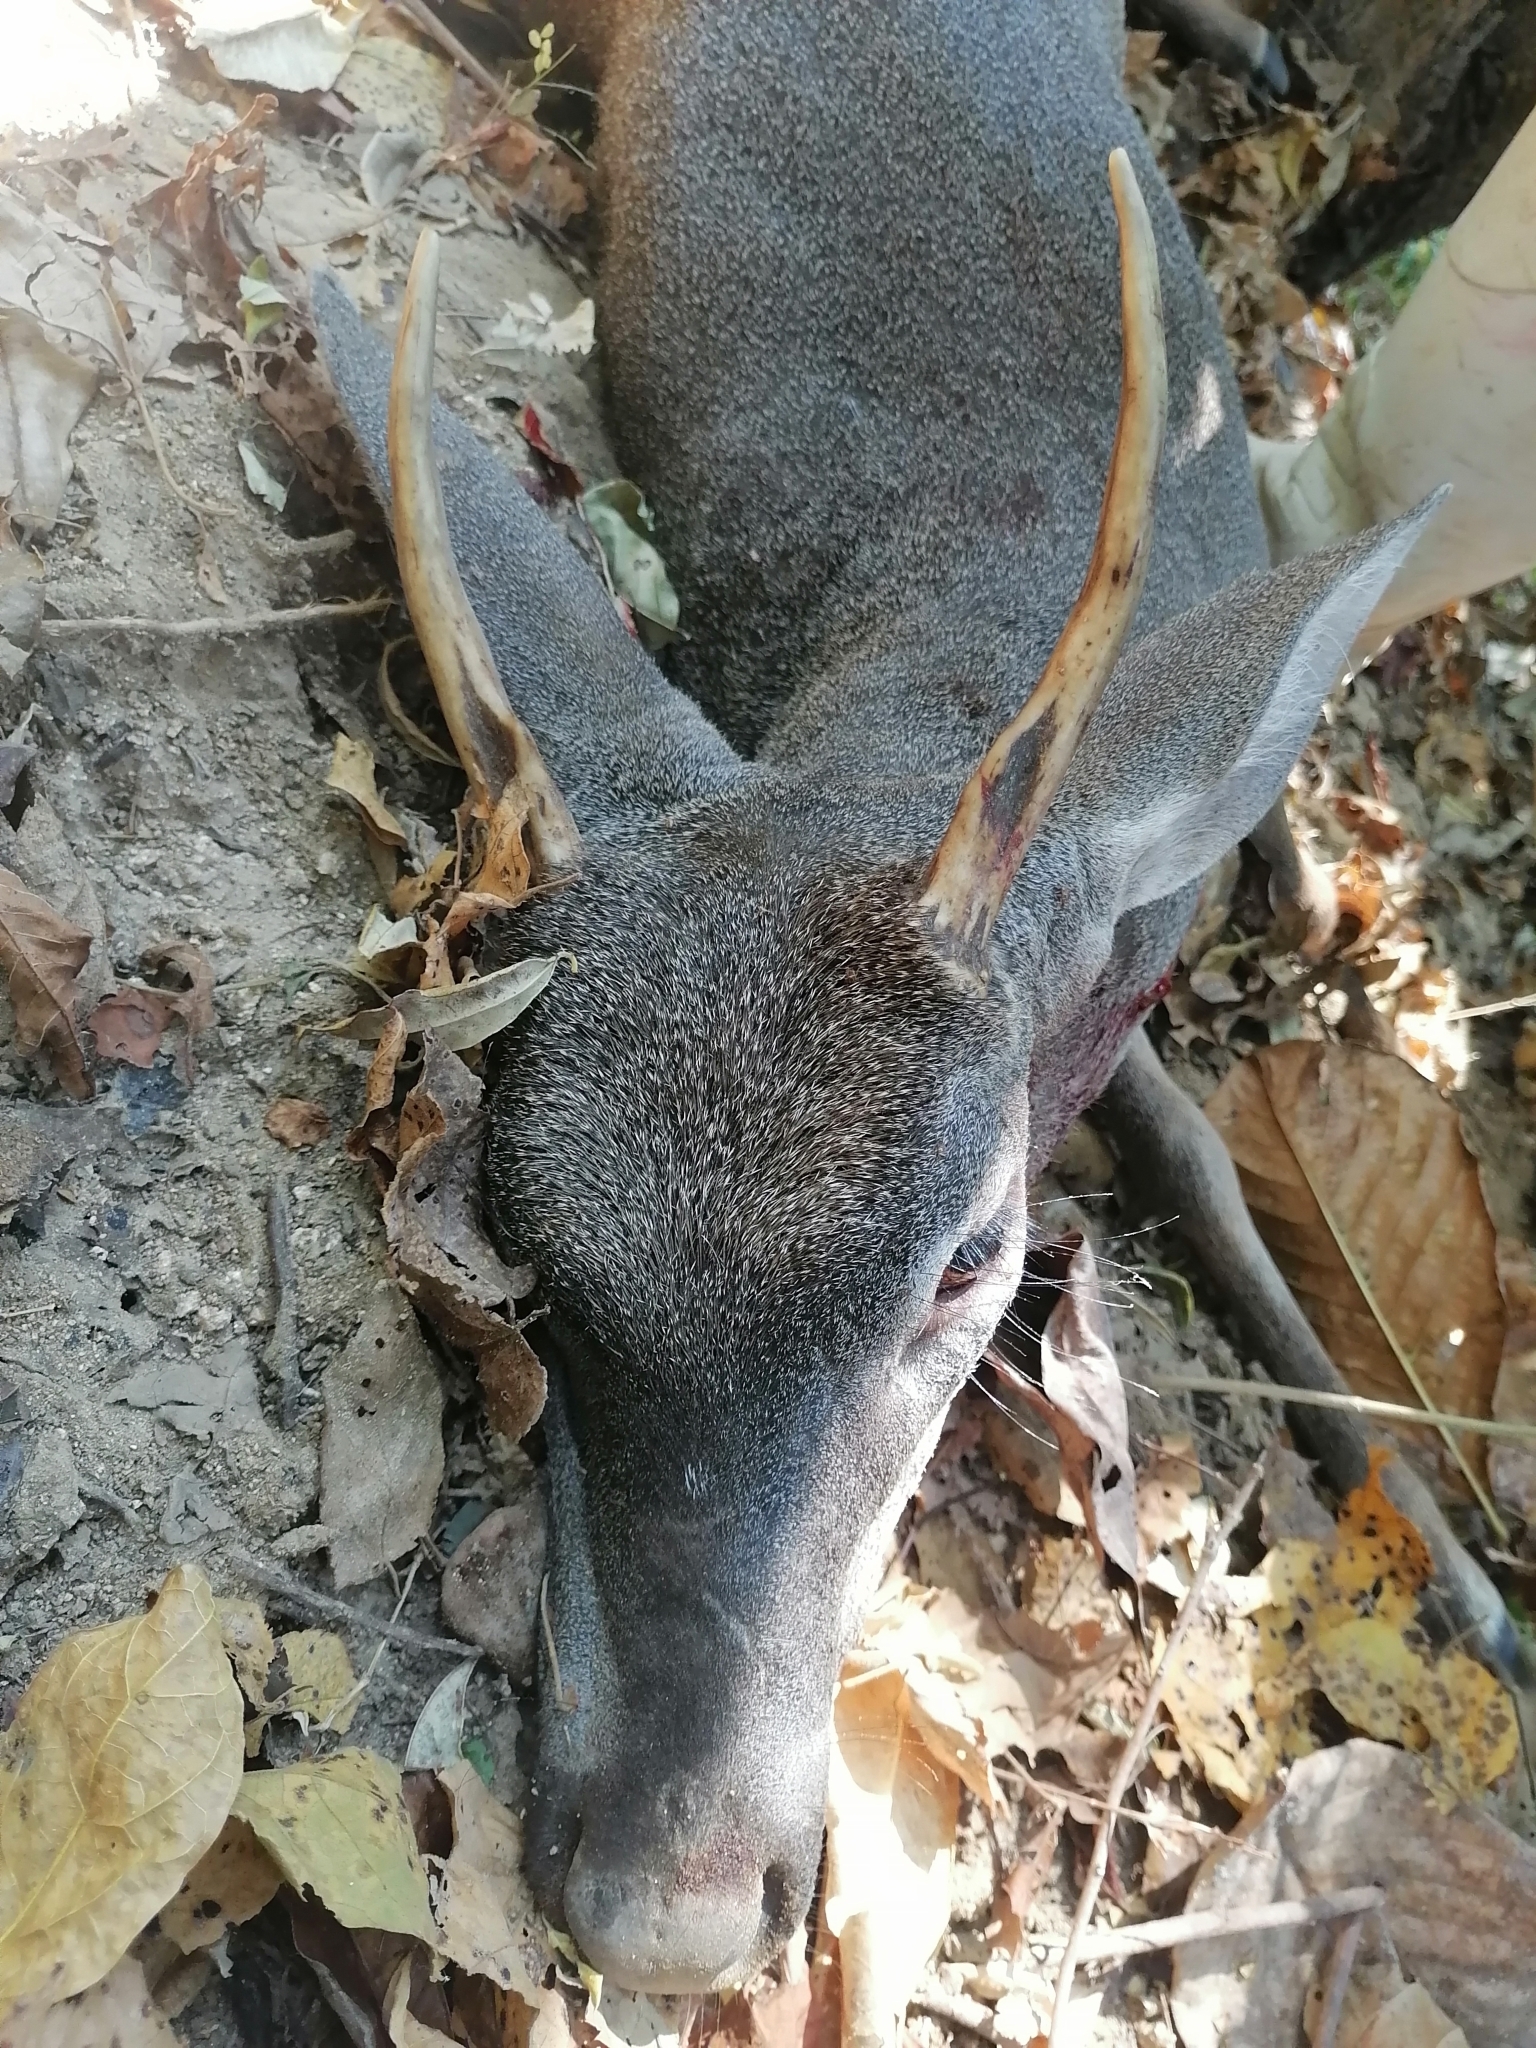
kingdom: Animalia
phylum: Chordata
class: Mammalia
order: Artiodactyla
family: Cervidae
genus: Odocoileus
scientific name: Odocoileus virginianus
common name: White-tailed deer
